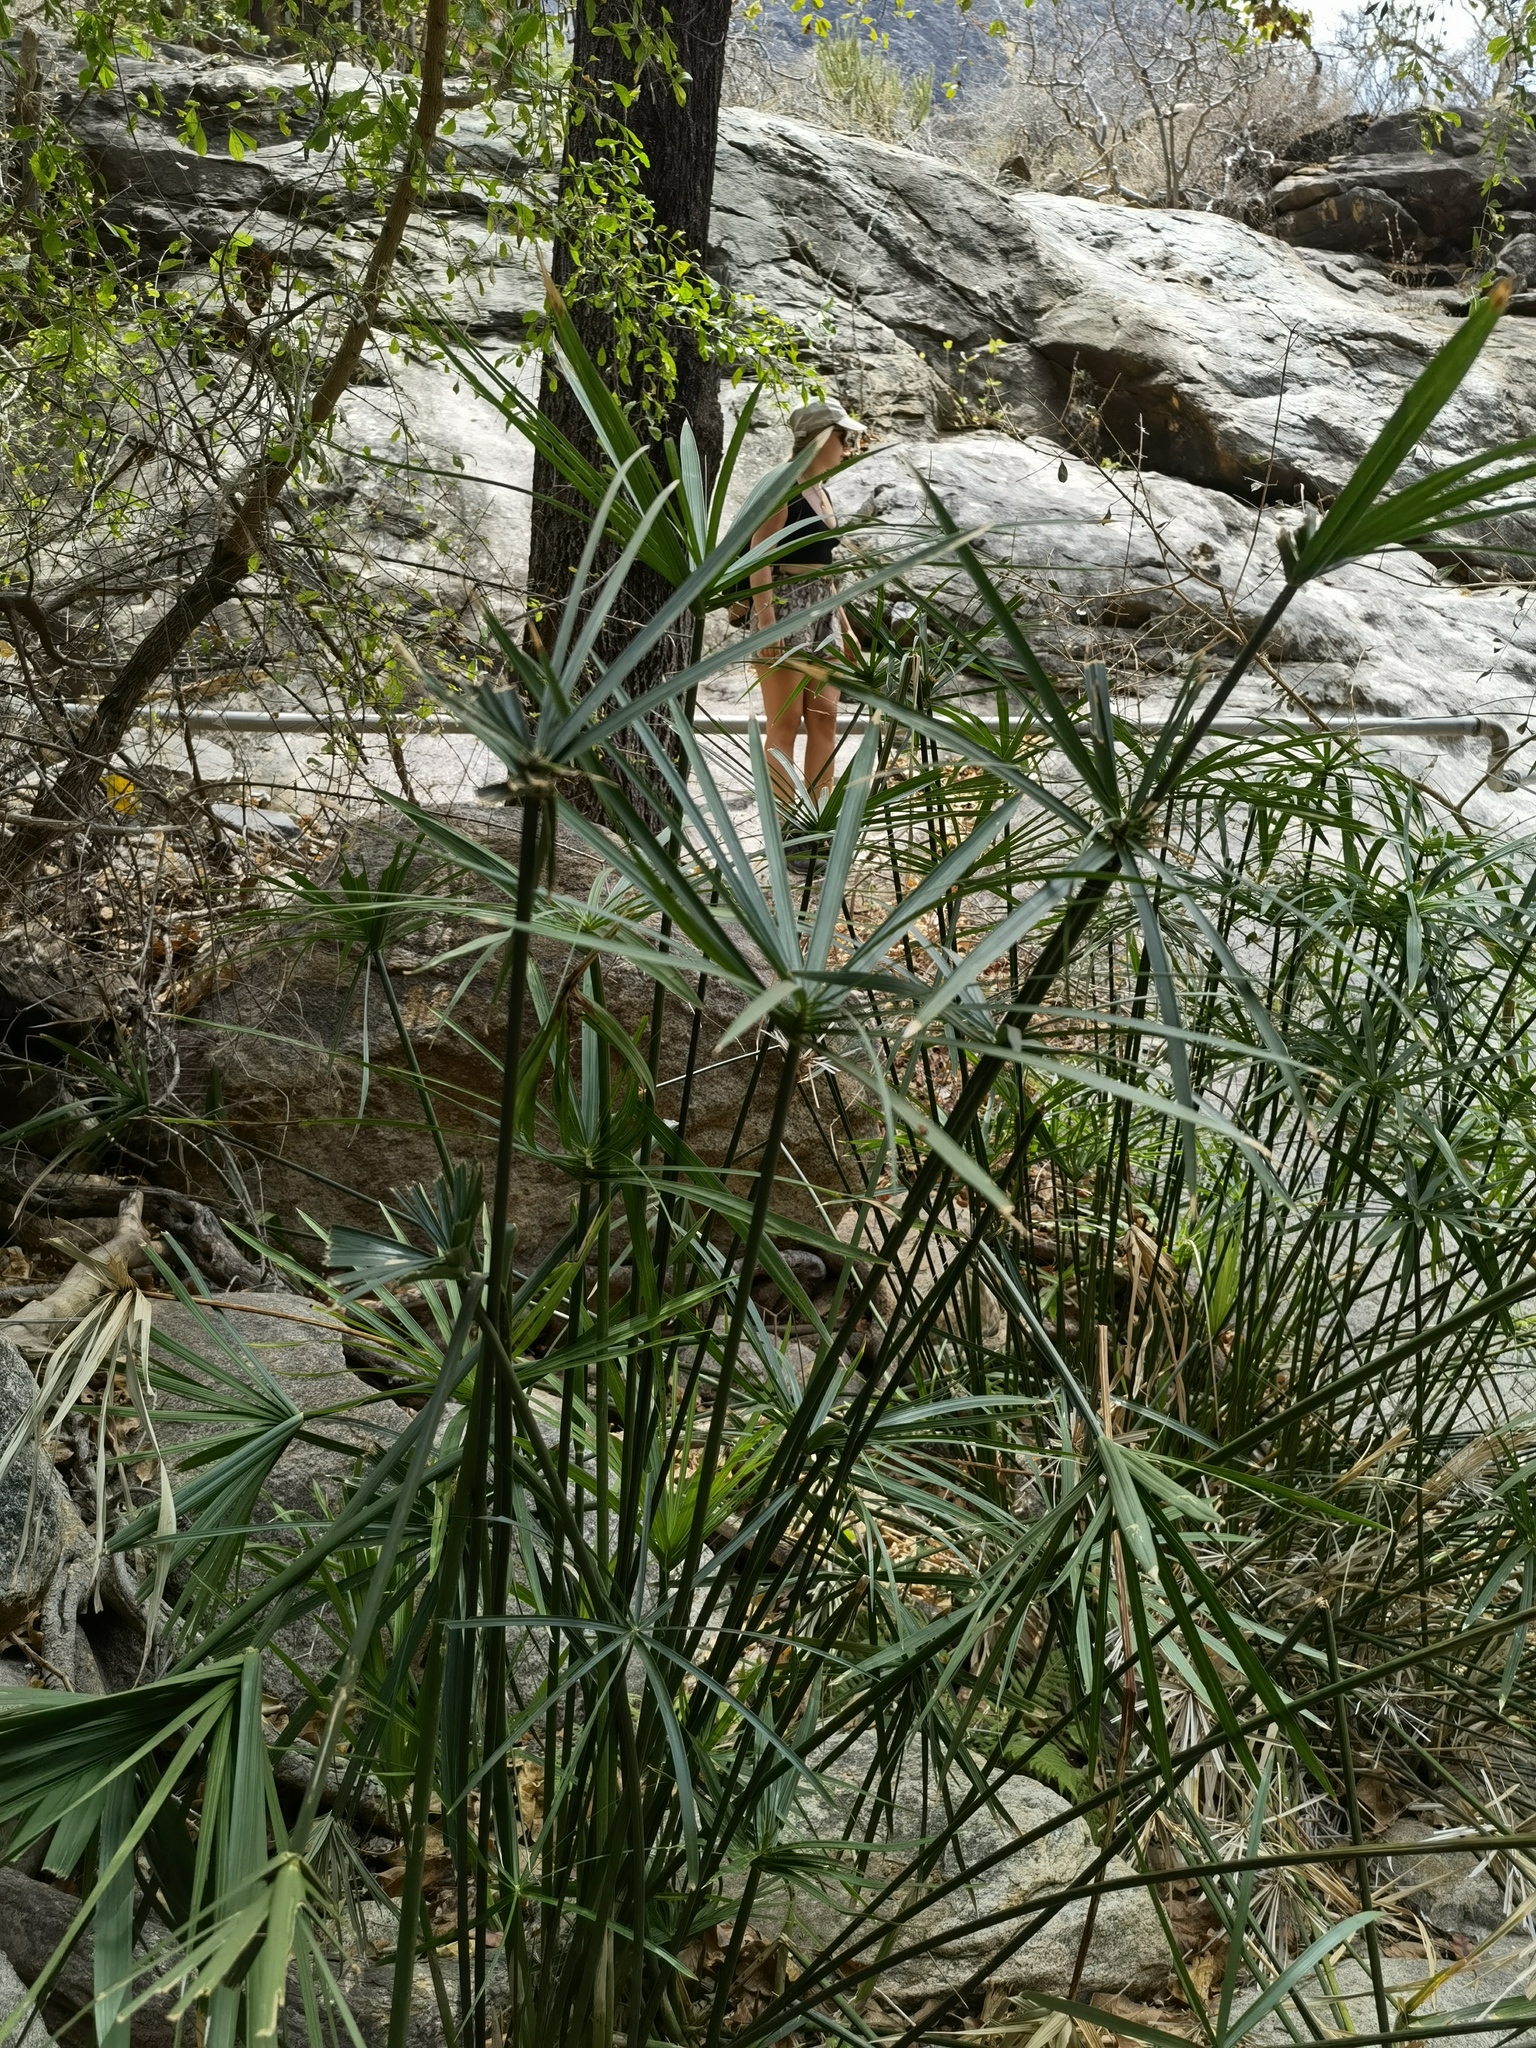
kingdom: Plantae
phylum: Tracheophyta
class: Liliopsida
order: Poales
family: Cyperaceae
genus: Cyperus
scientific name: Cyperus alternifolius
